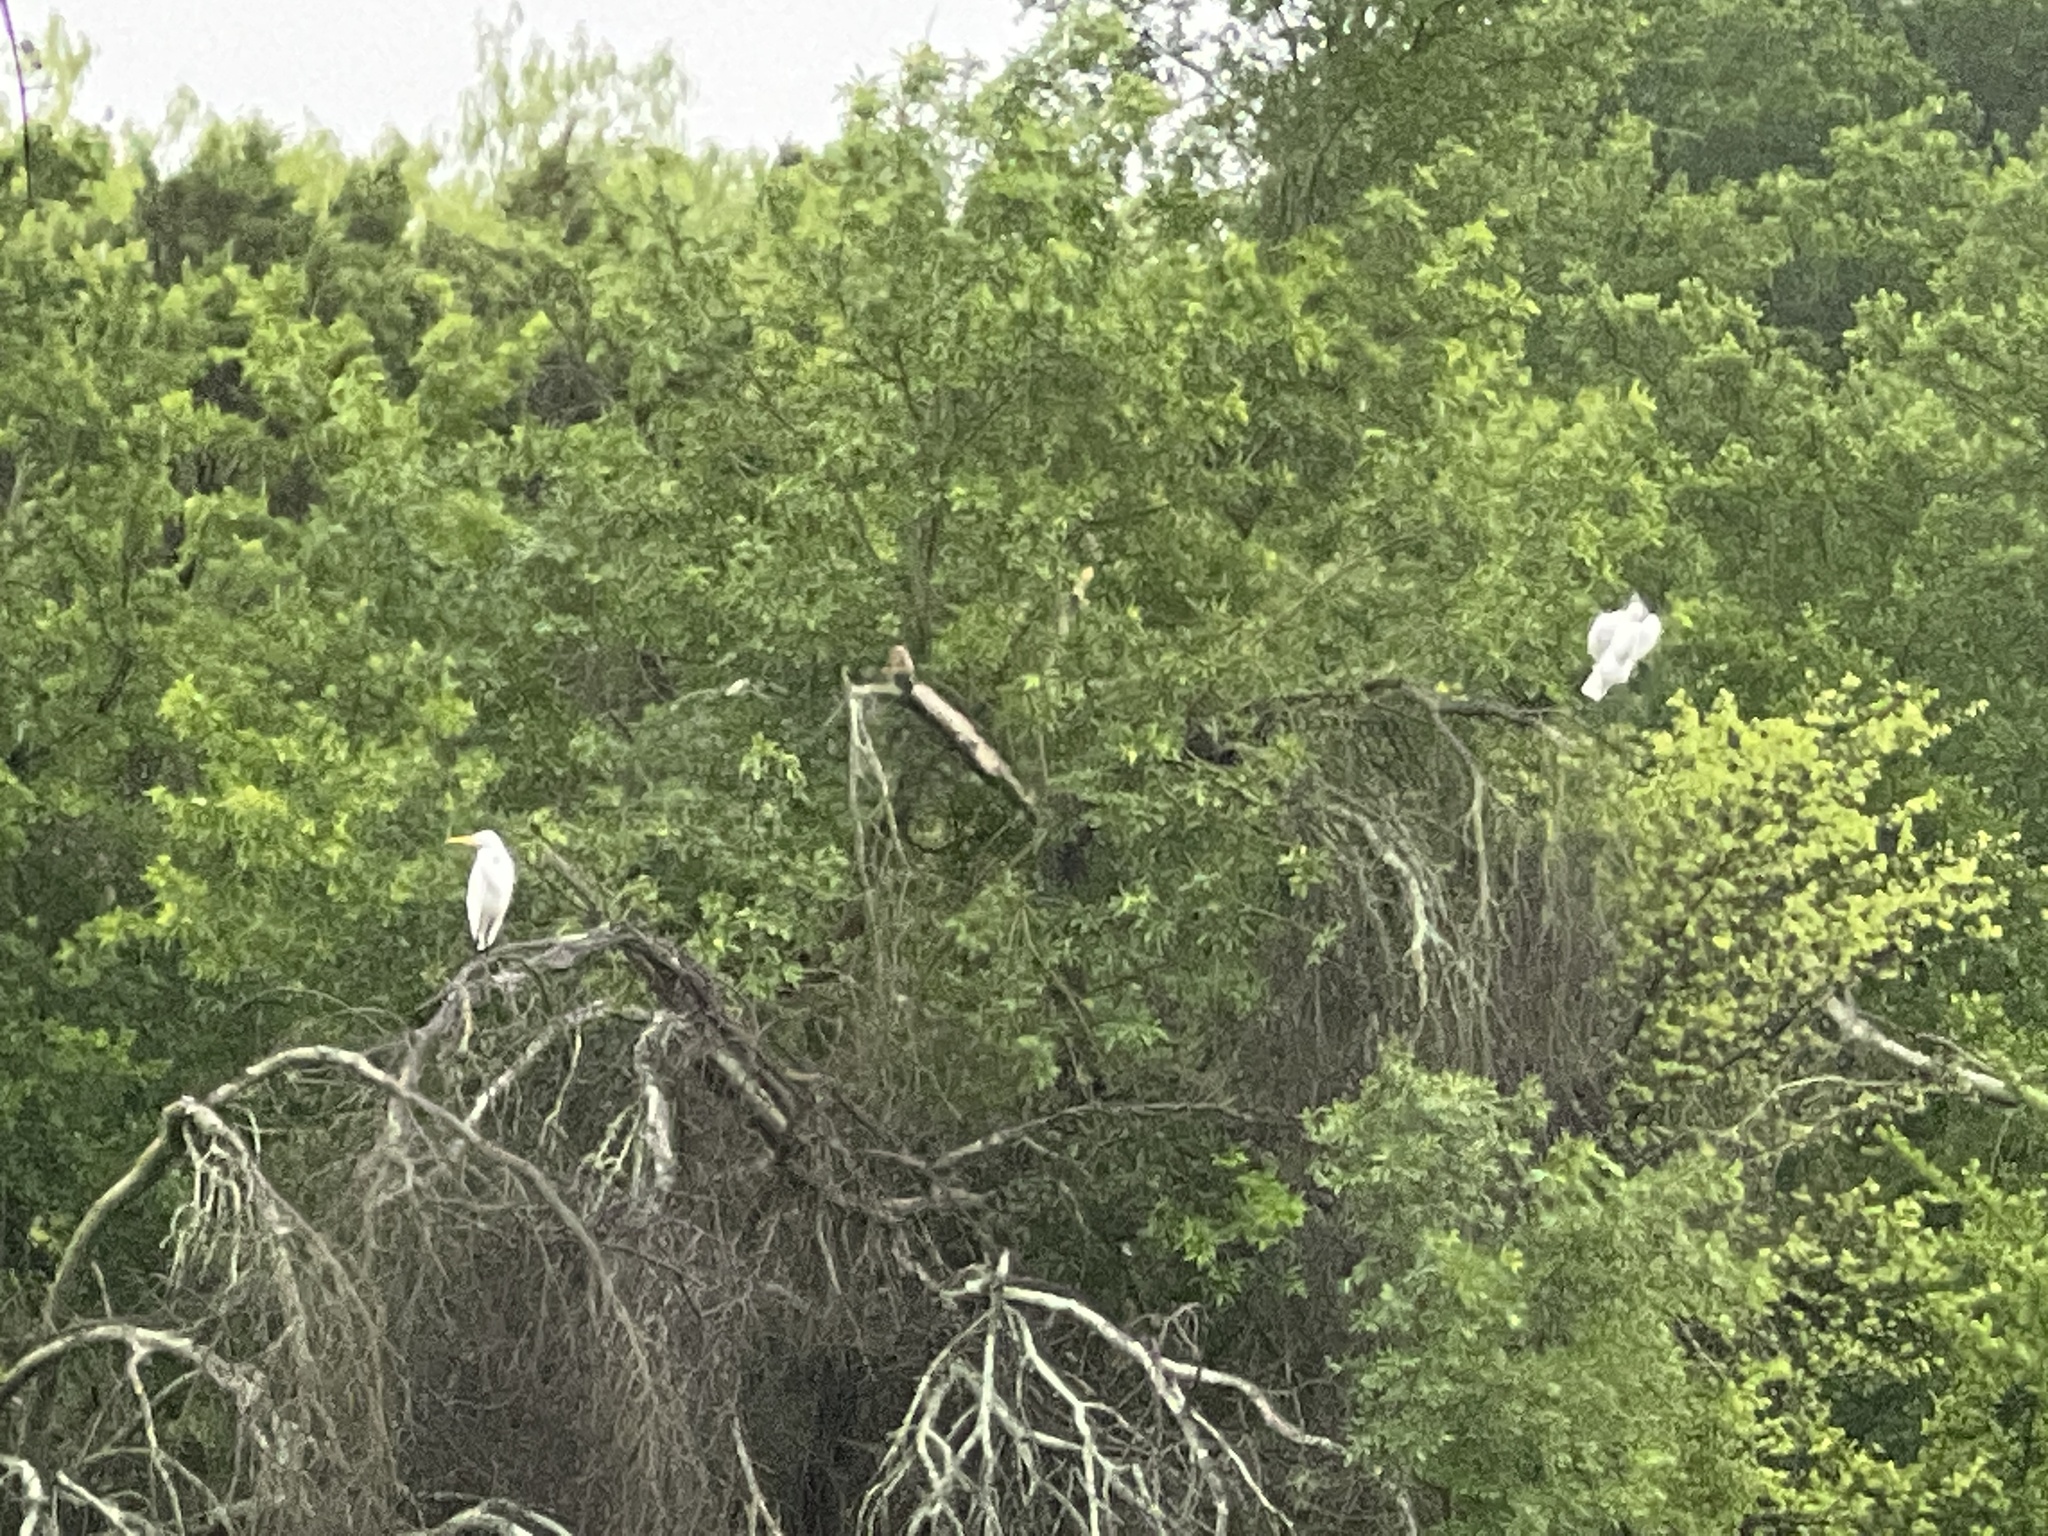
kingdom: Animalia
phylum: Chordata
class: Aves
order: Pelecaniformes
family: Ardeidae
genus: Ardea
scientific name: Ardea alba
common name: Great egret
